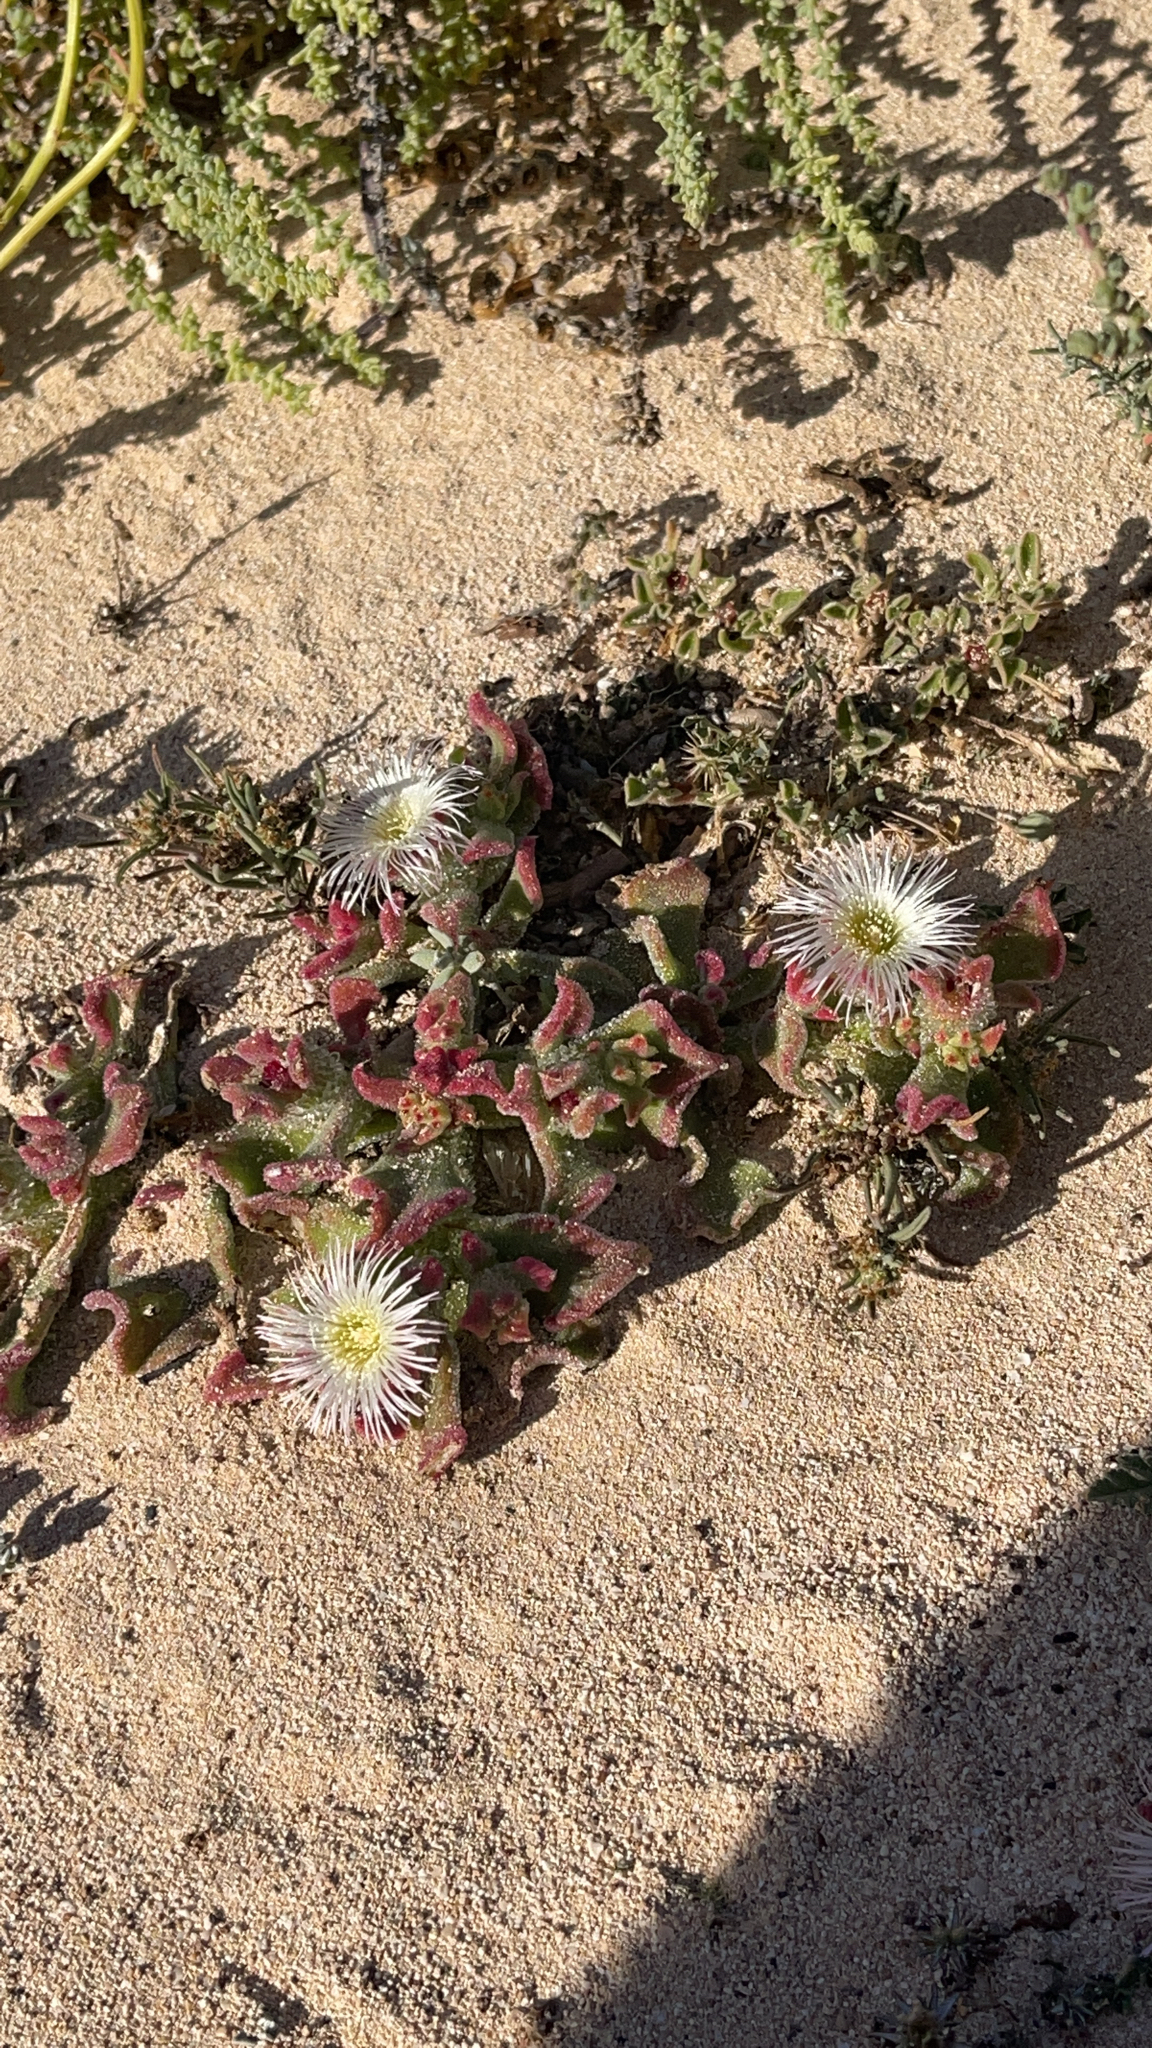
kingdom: Plantae
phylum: Tracheophyta
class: Magnoliopsida
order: Caryophyllales
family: Aizoaceae
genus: Mesembryanthemum
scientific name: Mesembryanthemum crystallinum
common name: Common iceplant
